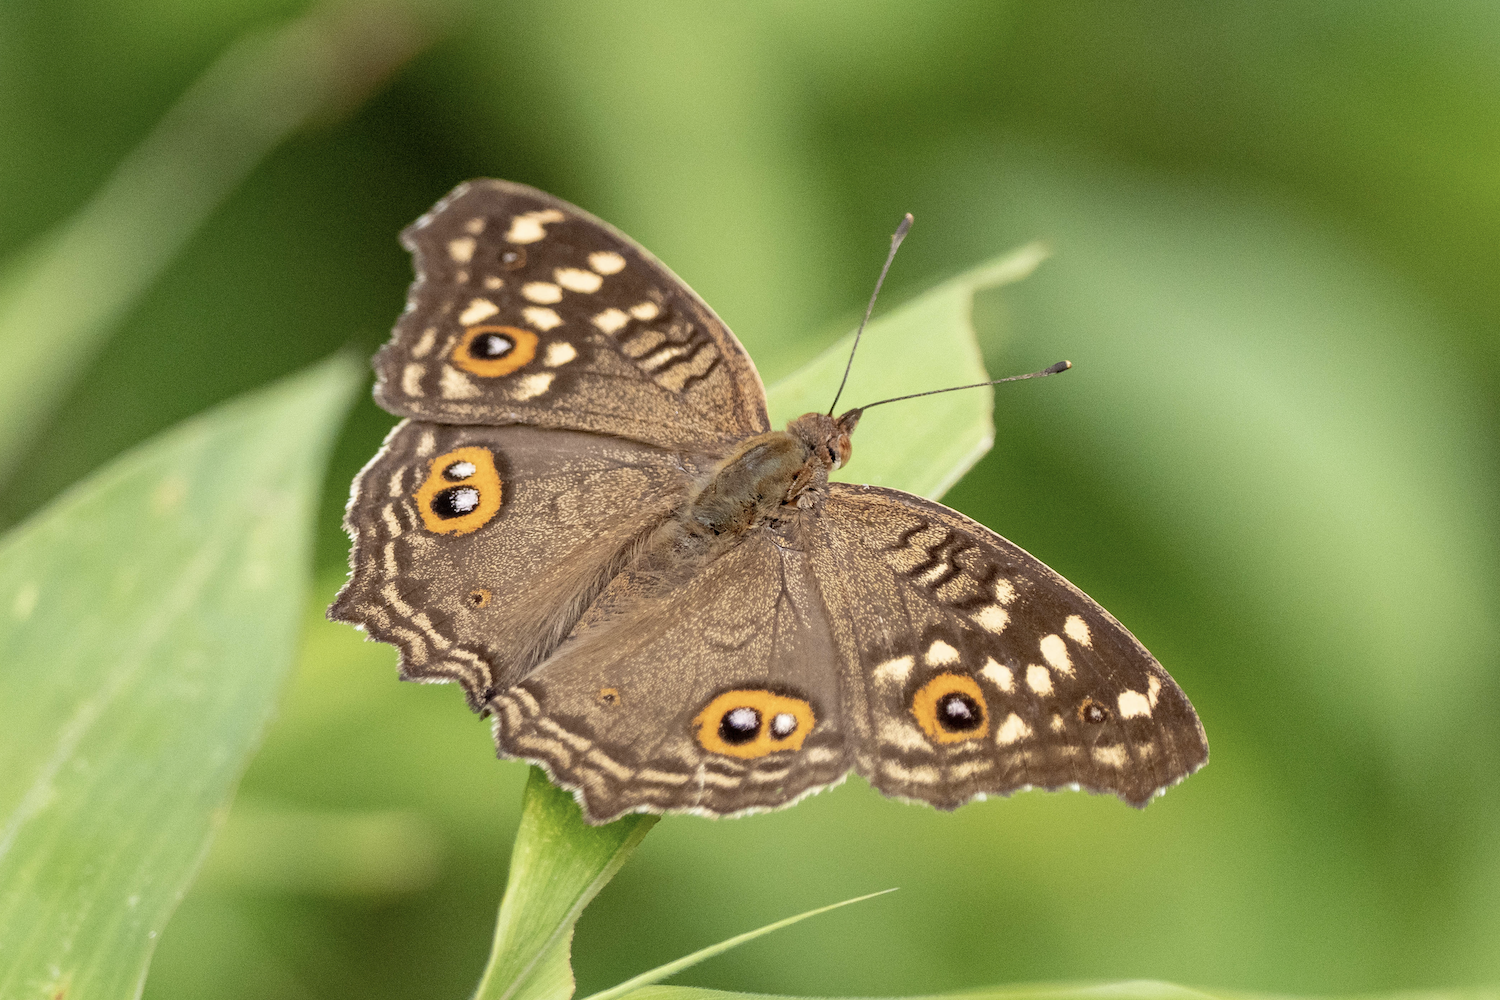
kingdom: Animalia
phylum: Arthropoda
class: Insecta
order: Lepidoptera
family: Nymphalidae
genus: Junonia
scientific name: Junonia lemonias
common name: Lemon pansy
